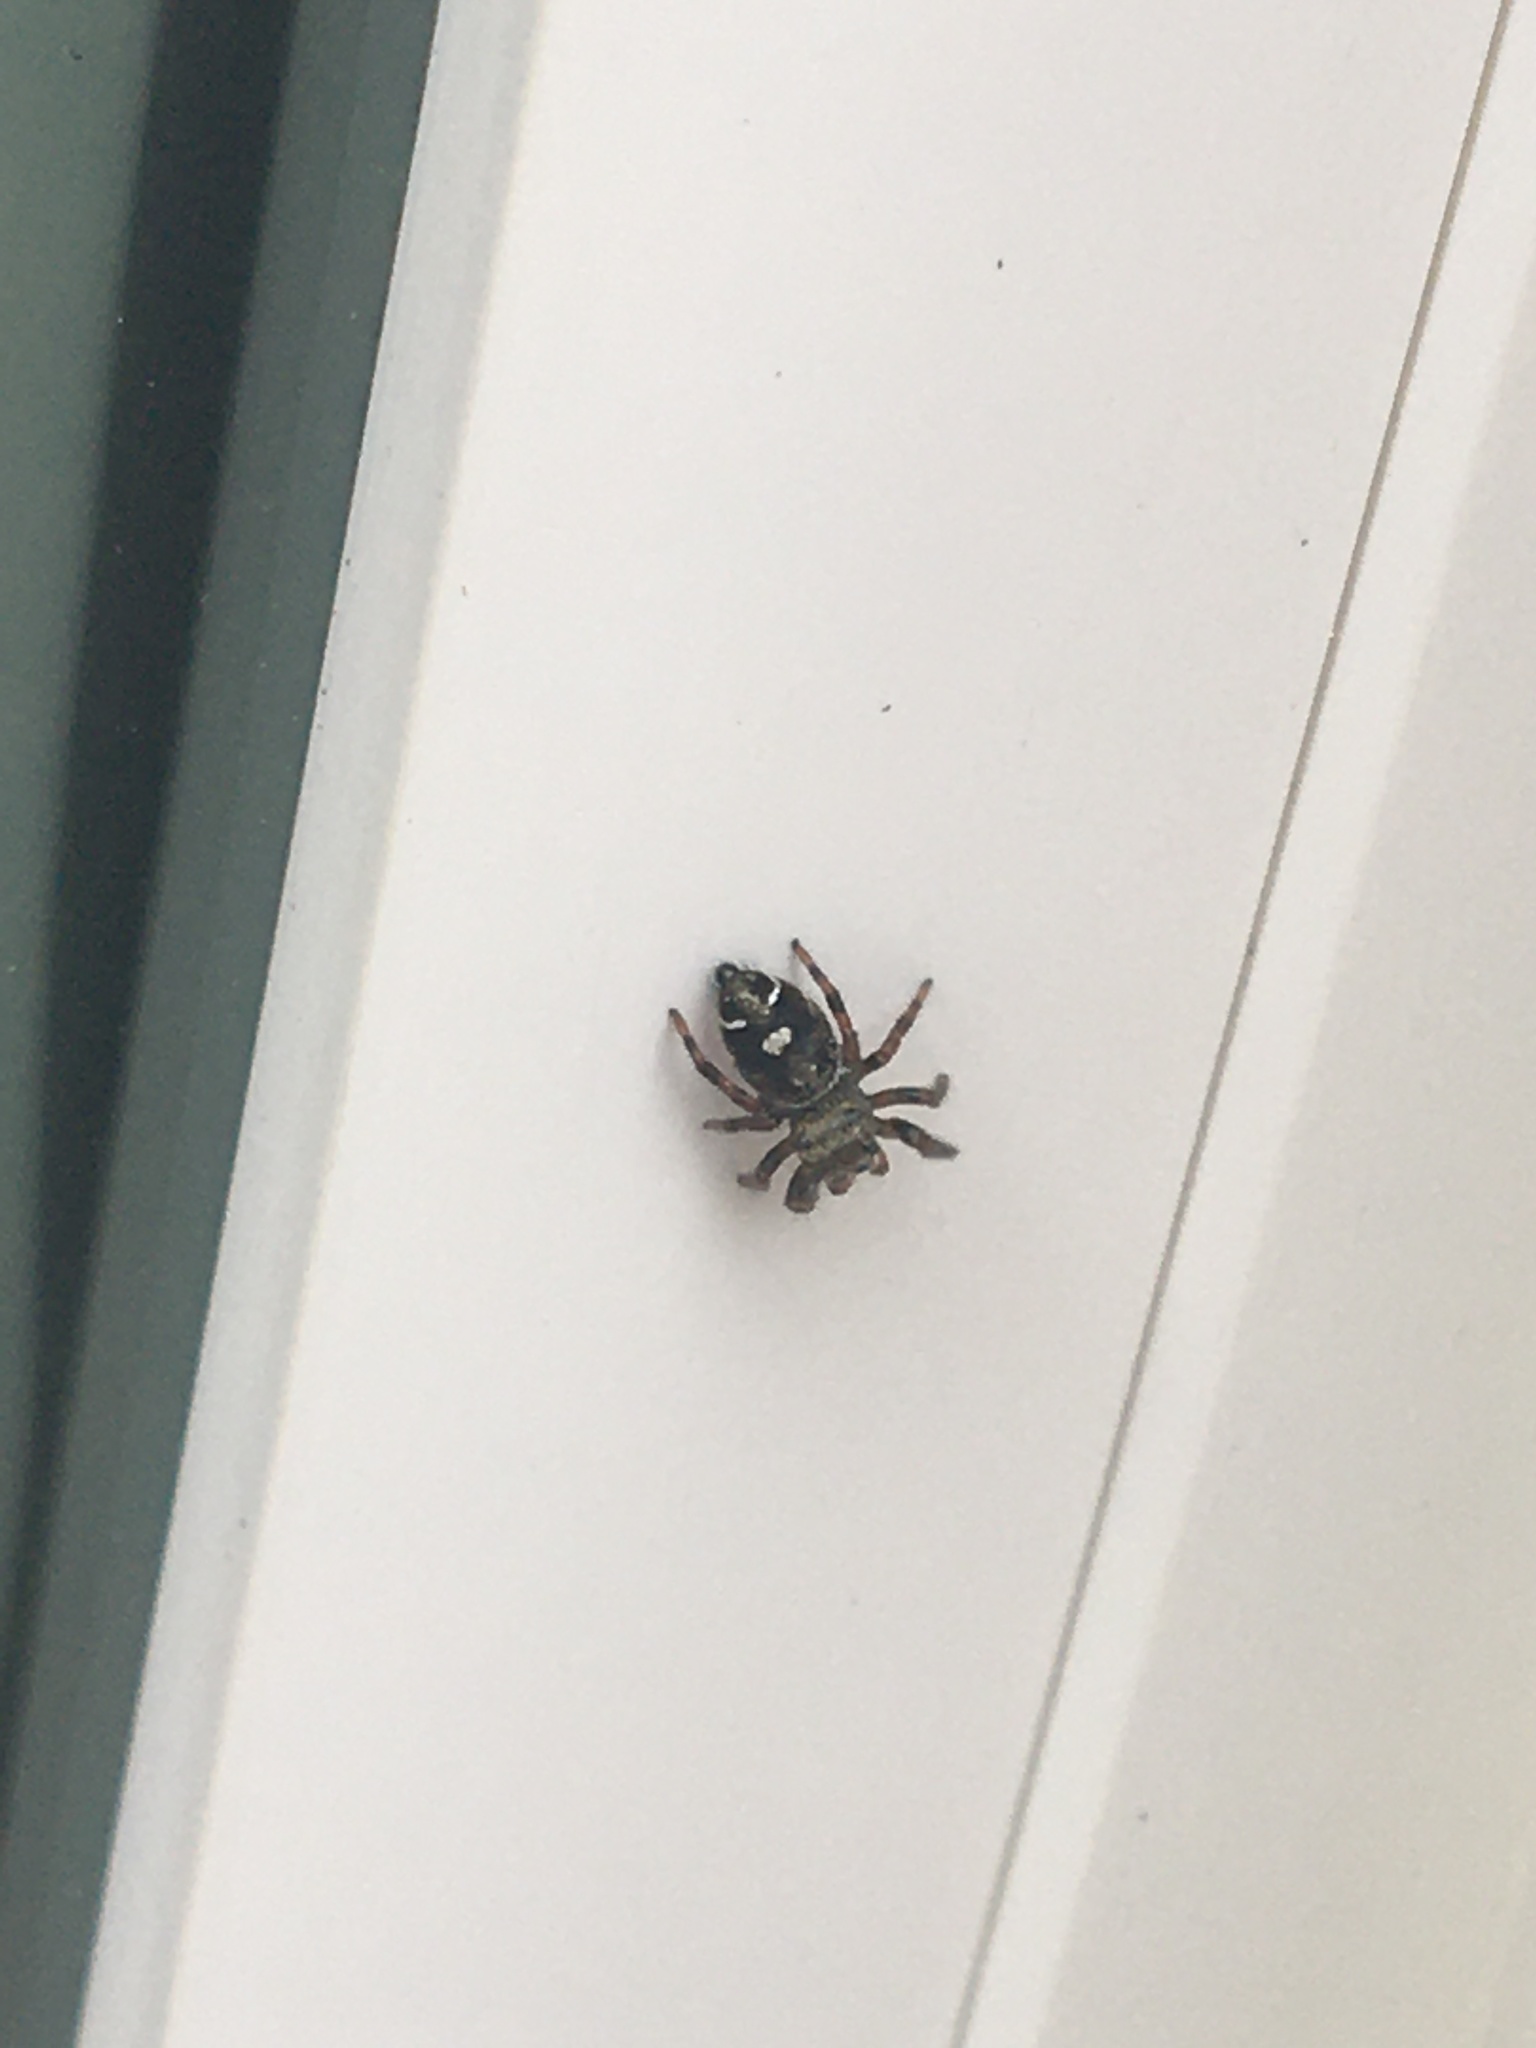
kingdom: Animalia
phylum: Arthropoda
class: Arachnida
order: Araneae
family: Salticidae
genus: Phidippus
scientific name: Phidippus audax
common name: Bold jumper
